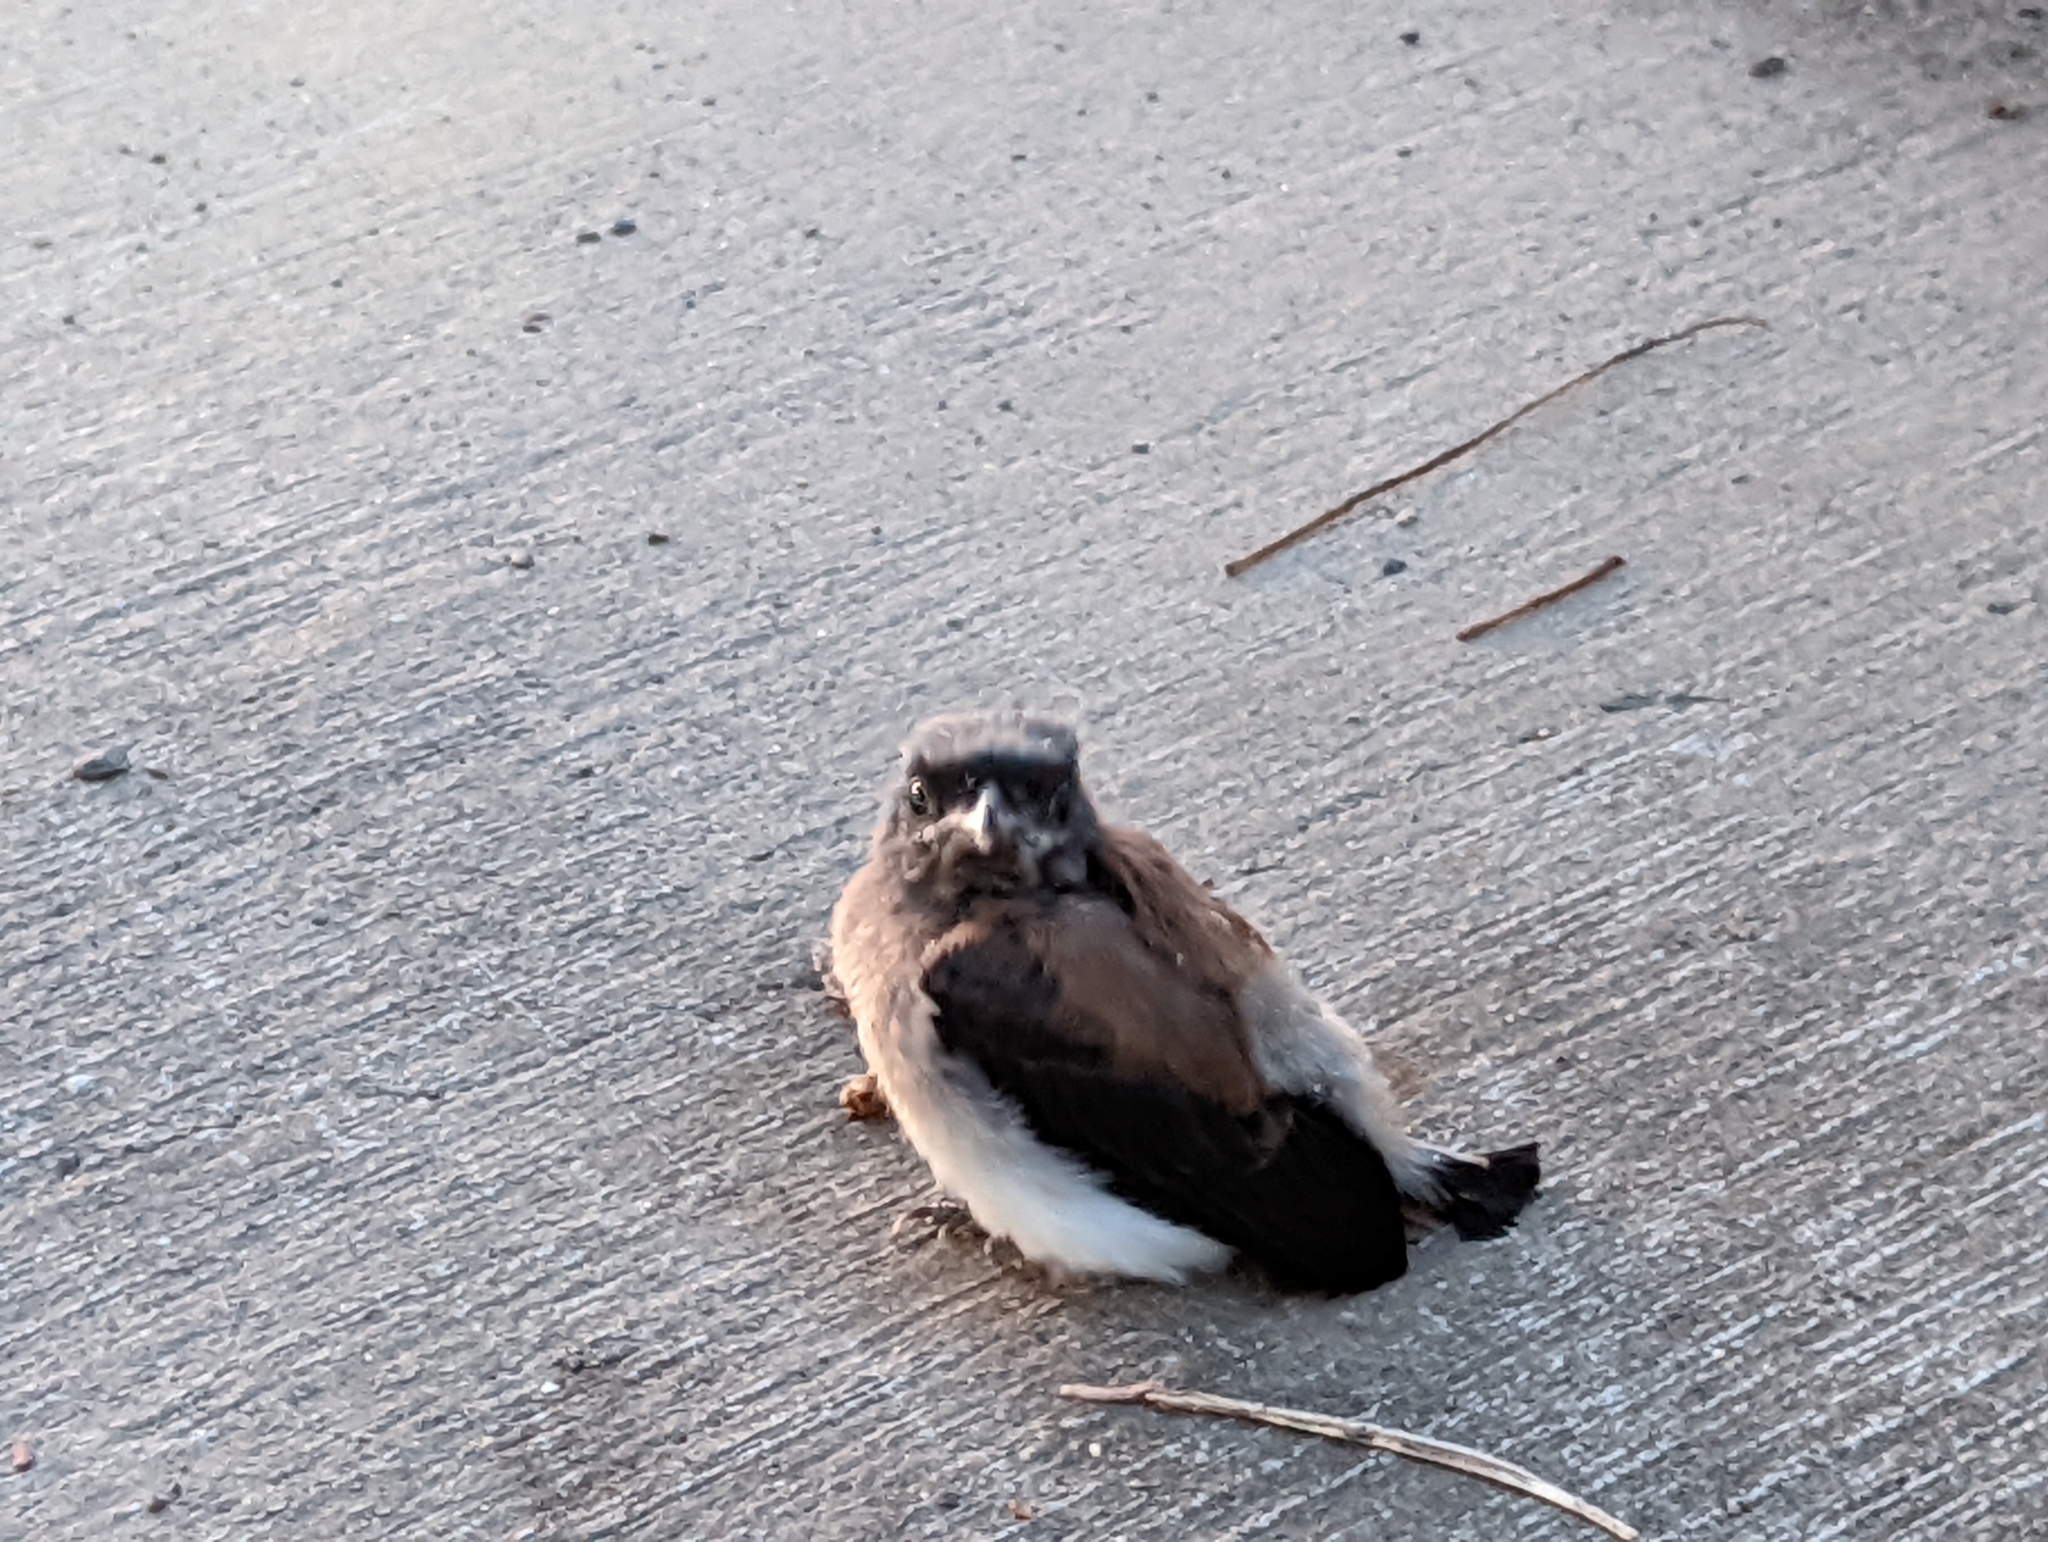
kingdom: Animalia
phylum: Chordata
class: Aves
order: Passeriformes
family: Corvidae
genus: Dendrocitta
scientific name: Dendrocitta formosae
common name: Grey treepie
